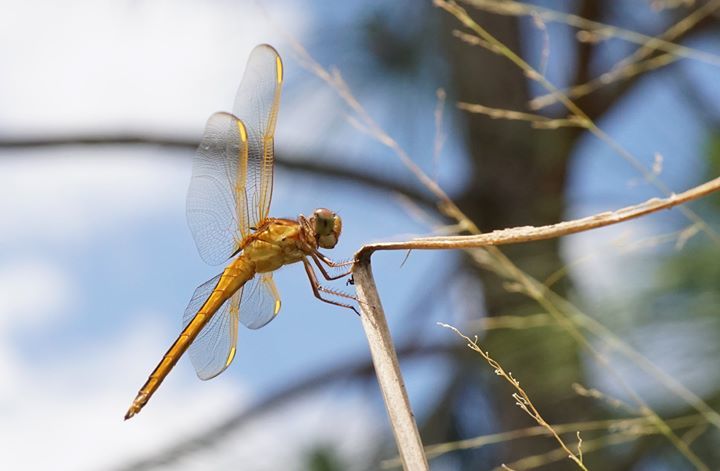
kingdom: Animalia
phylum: Arthropoda
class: Insecta
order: Odonata
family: Libellulidae
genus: Libellula
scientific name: Libellula needhami
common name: Needham's skimmer
